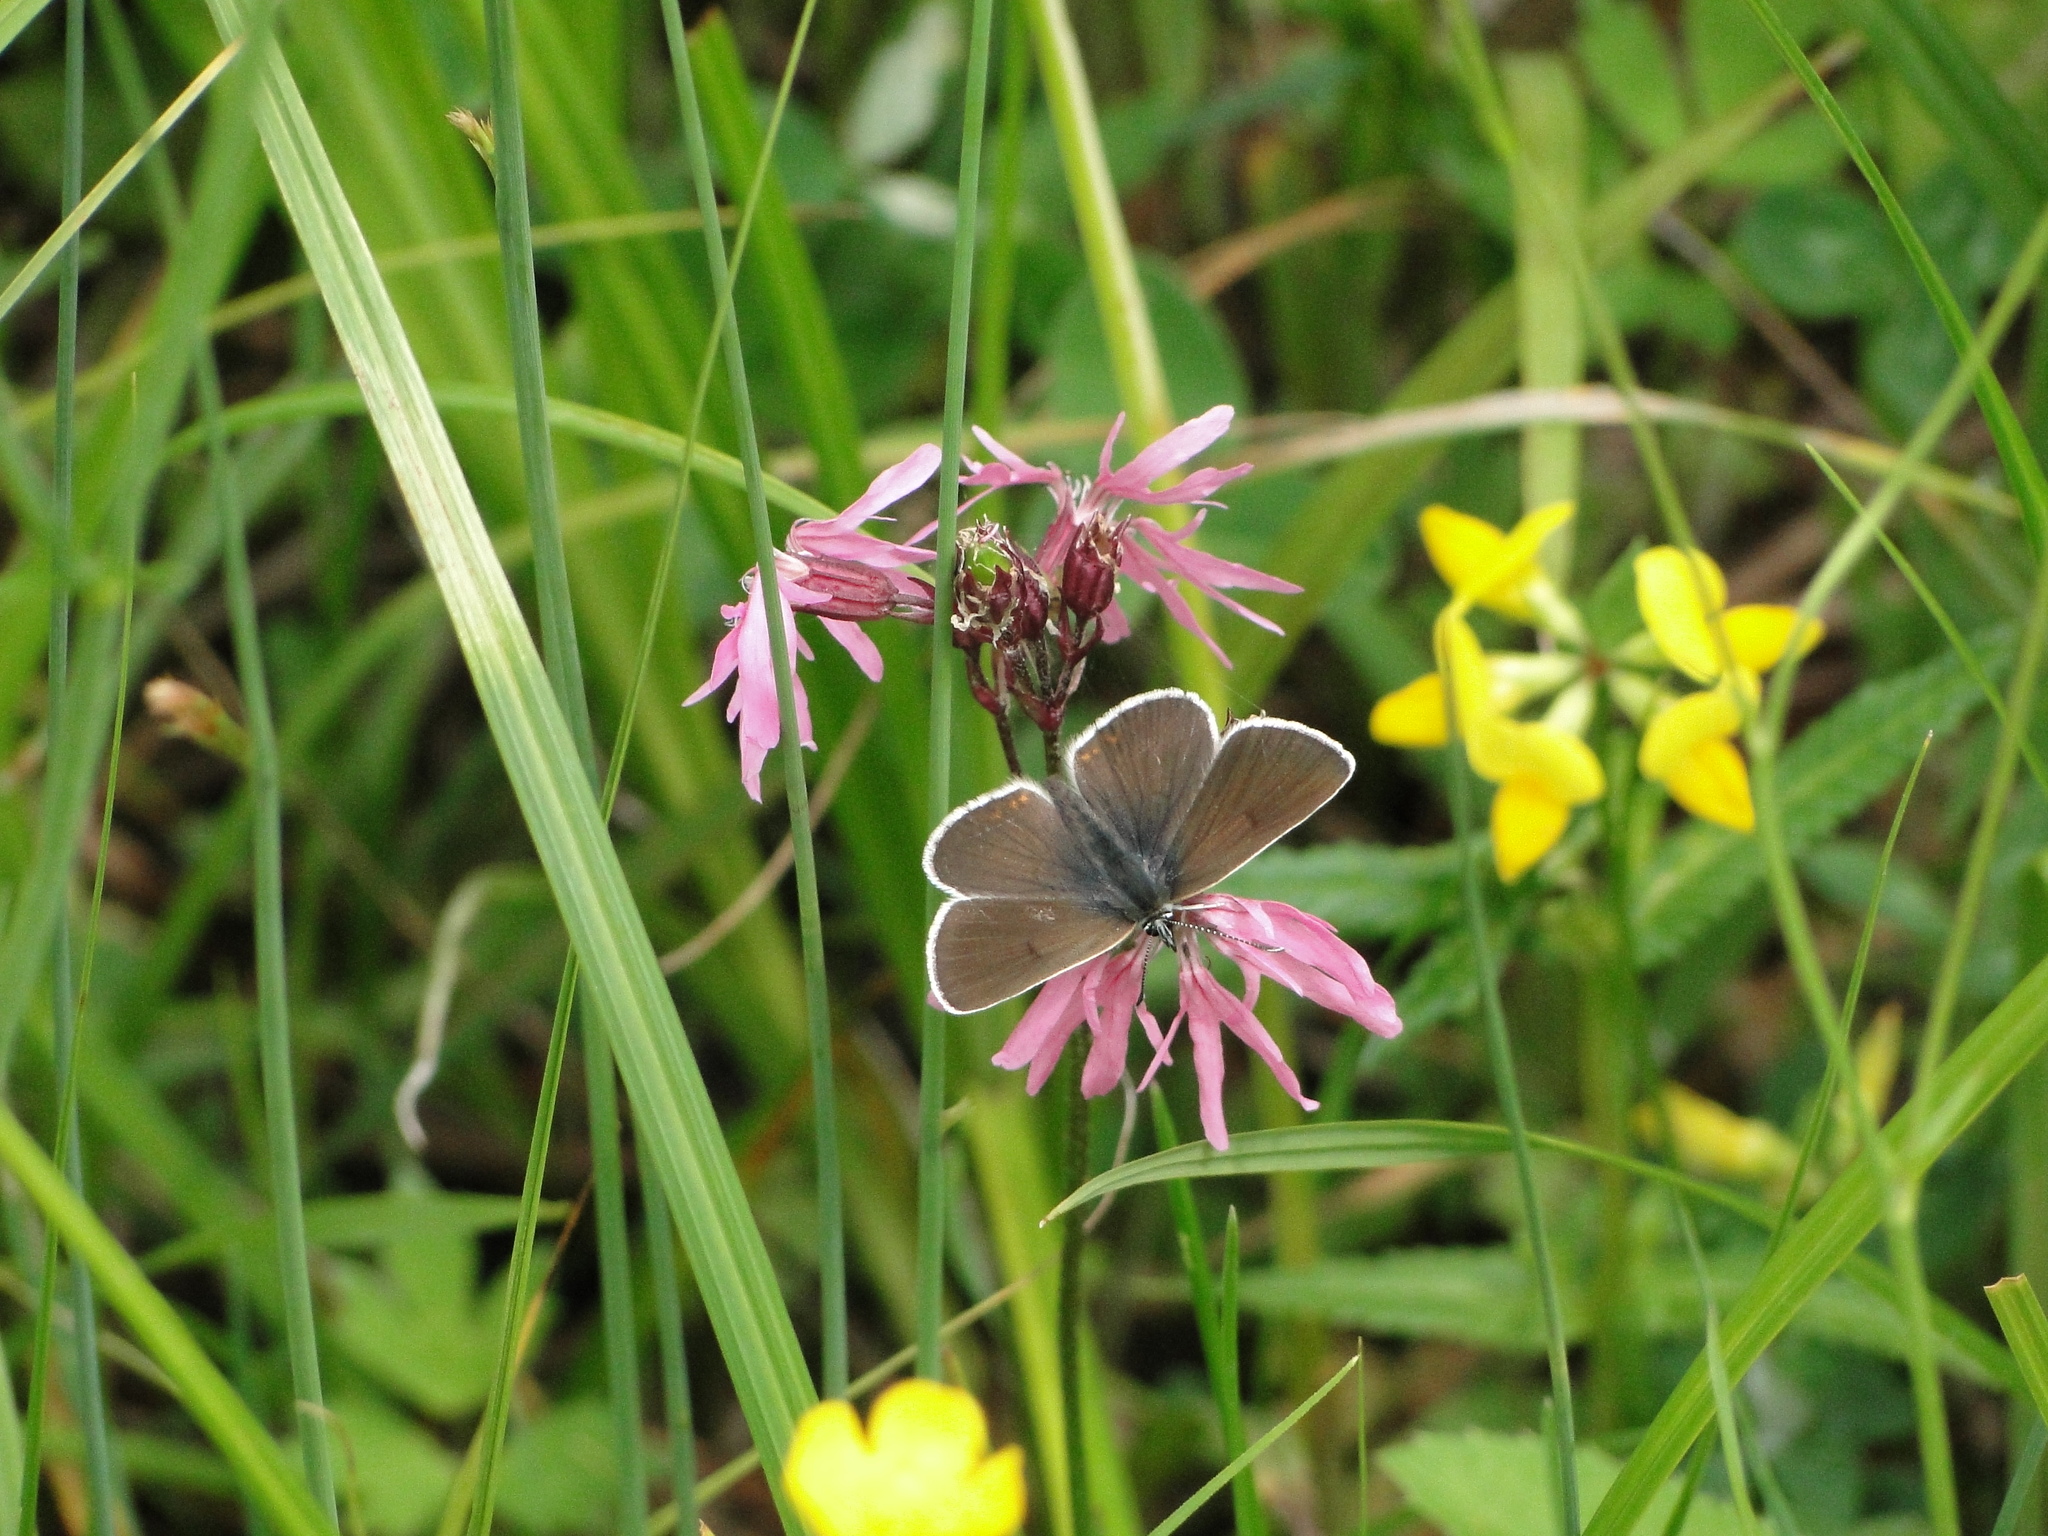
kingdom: Animalia
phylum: Arthropoda
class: Insecta
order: Lepidoptera
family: Lycaenidae
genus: Eumedonia
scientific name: Eumedonia eumedon
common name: Geranium argus
